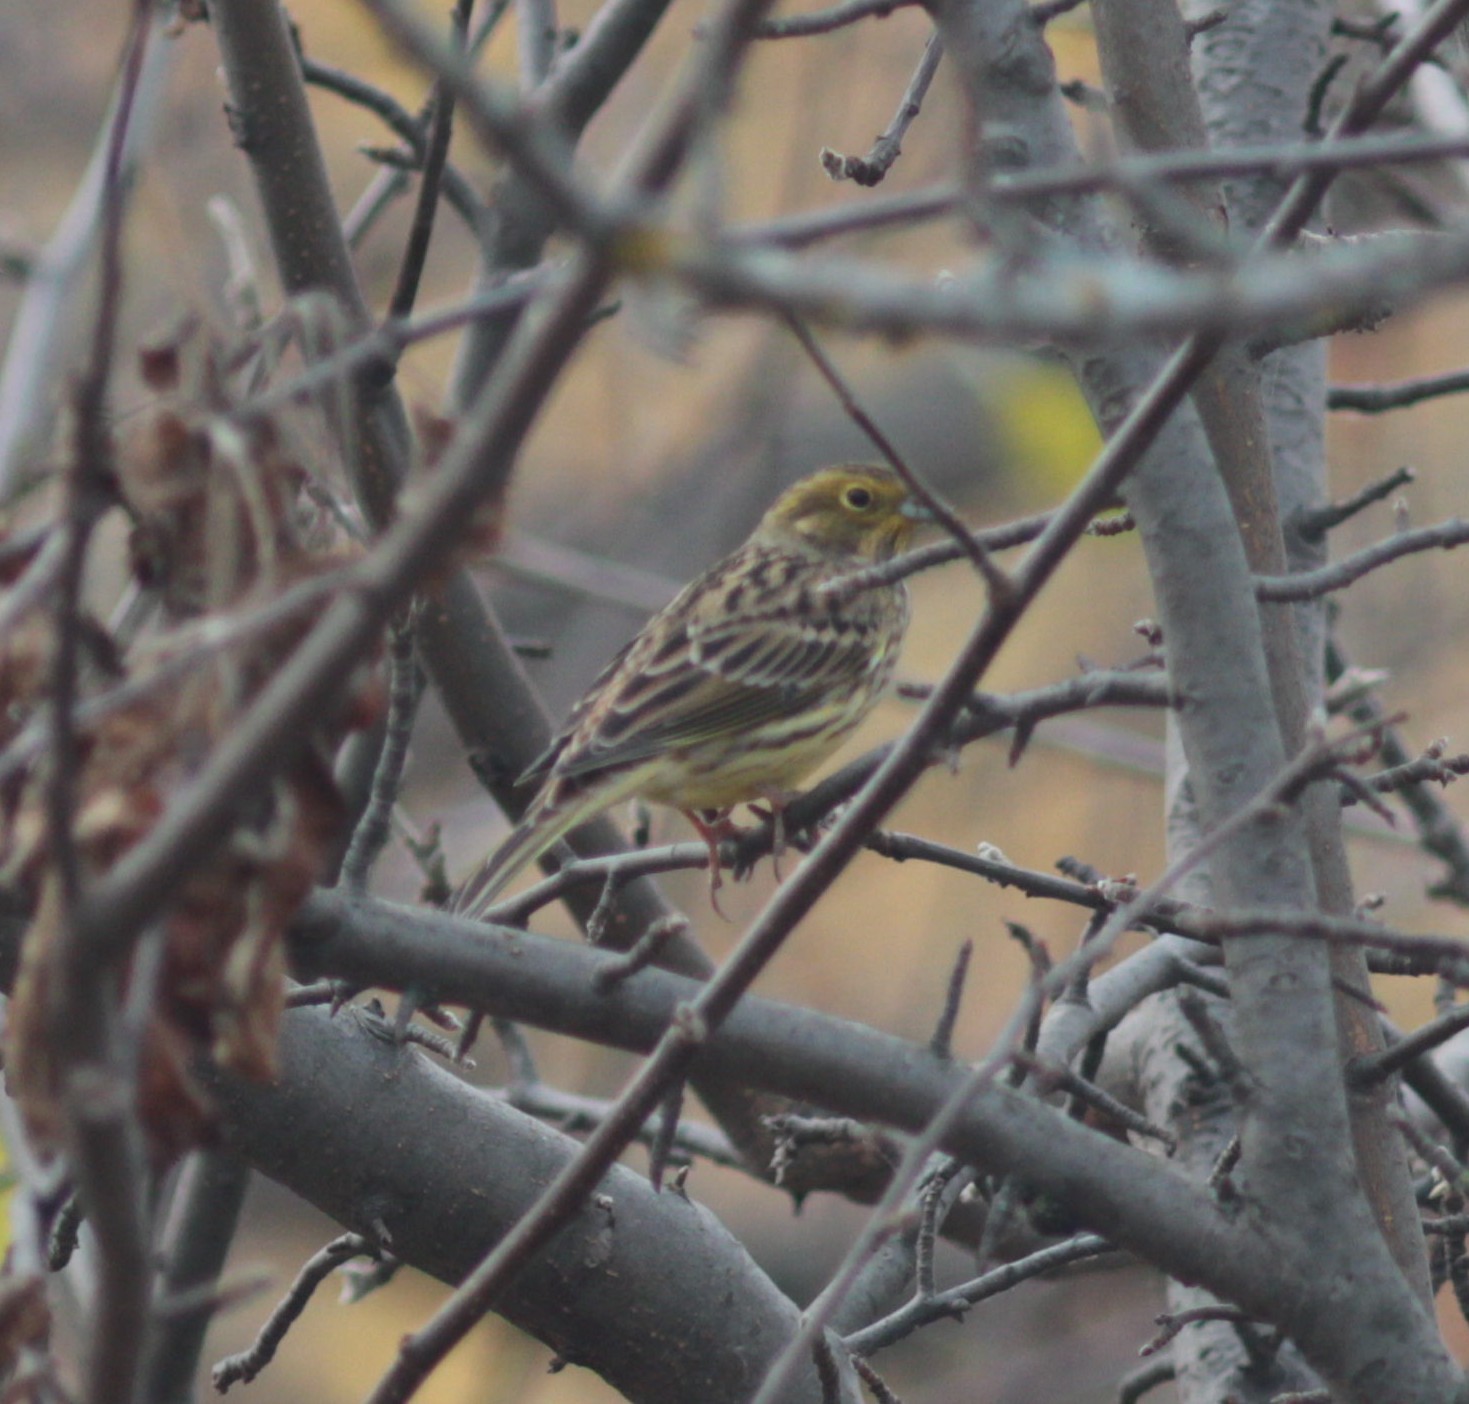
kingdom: Animalia
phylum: Chordata
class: Aves
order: Passeriformes
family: Emberizidae
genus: Emberiza
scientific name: Emberiza citrinella
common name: Yellowhammer
